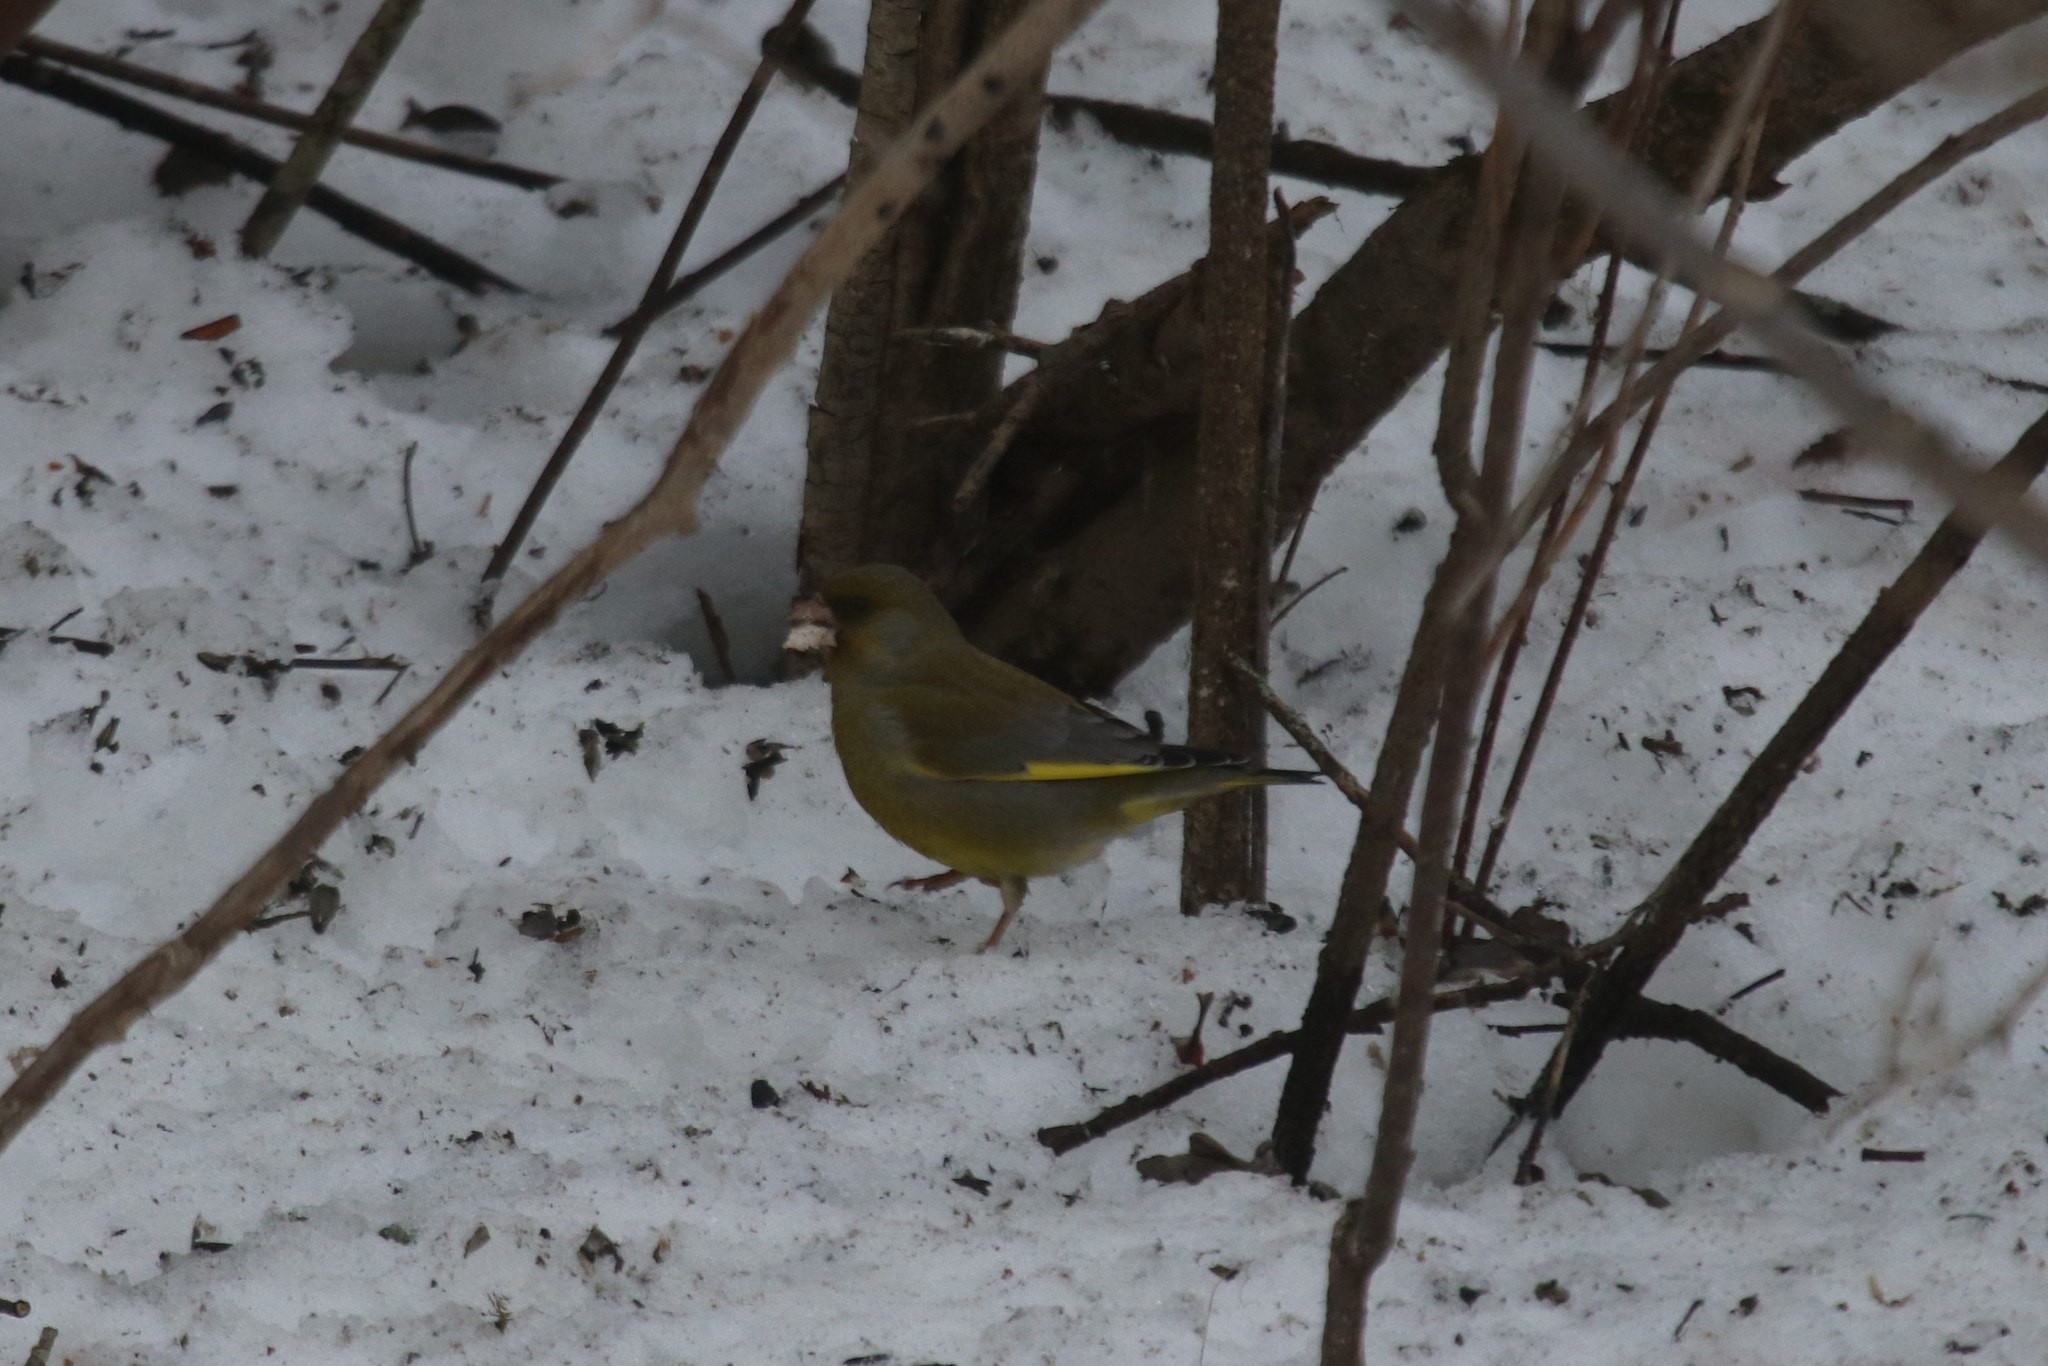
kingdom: Plantae
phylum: Tracheophyta
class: Liliopsida
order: Poales
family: Poaceae
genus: Chloris
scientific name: Chloris chloris
